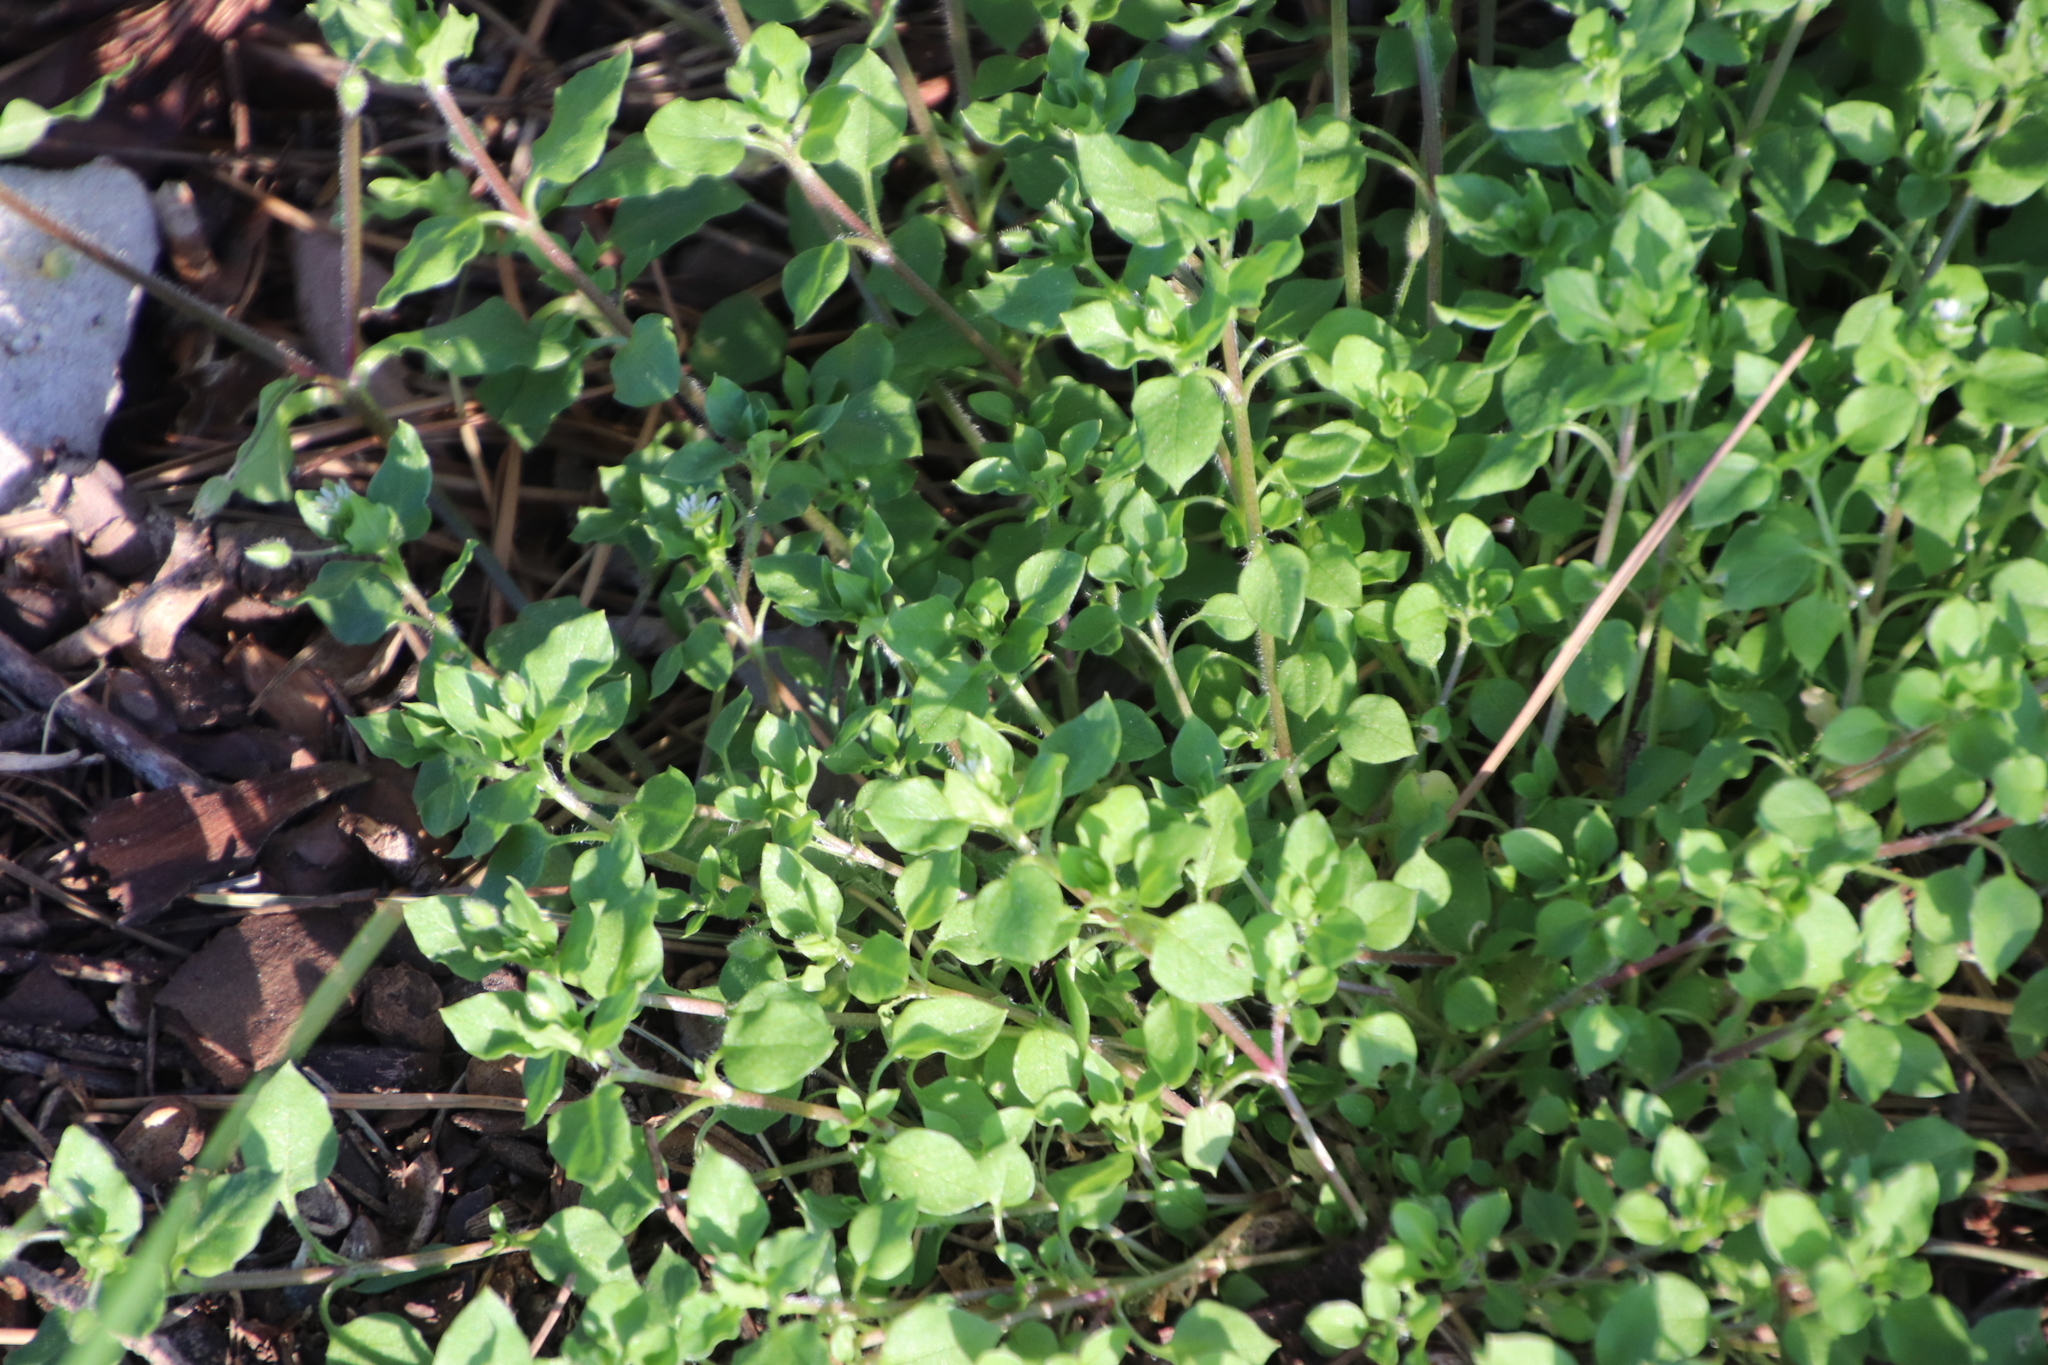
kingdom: Plantae
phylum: Tracheophyta
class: Magnoliopsida
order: Caryophyllales
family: Caryophyllaceae
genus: Stellaria
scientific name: Stellaria media
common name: Common chickweed
